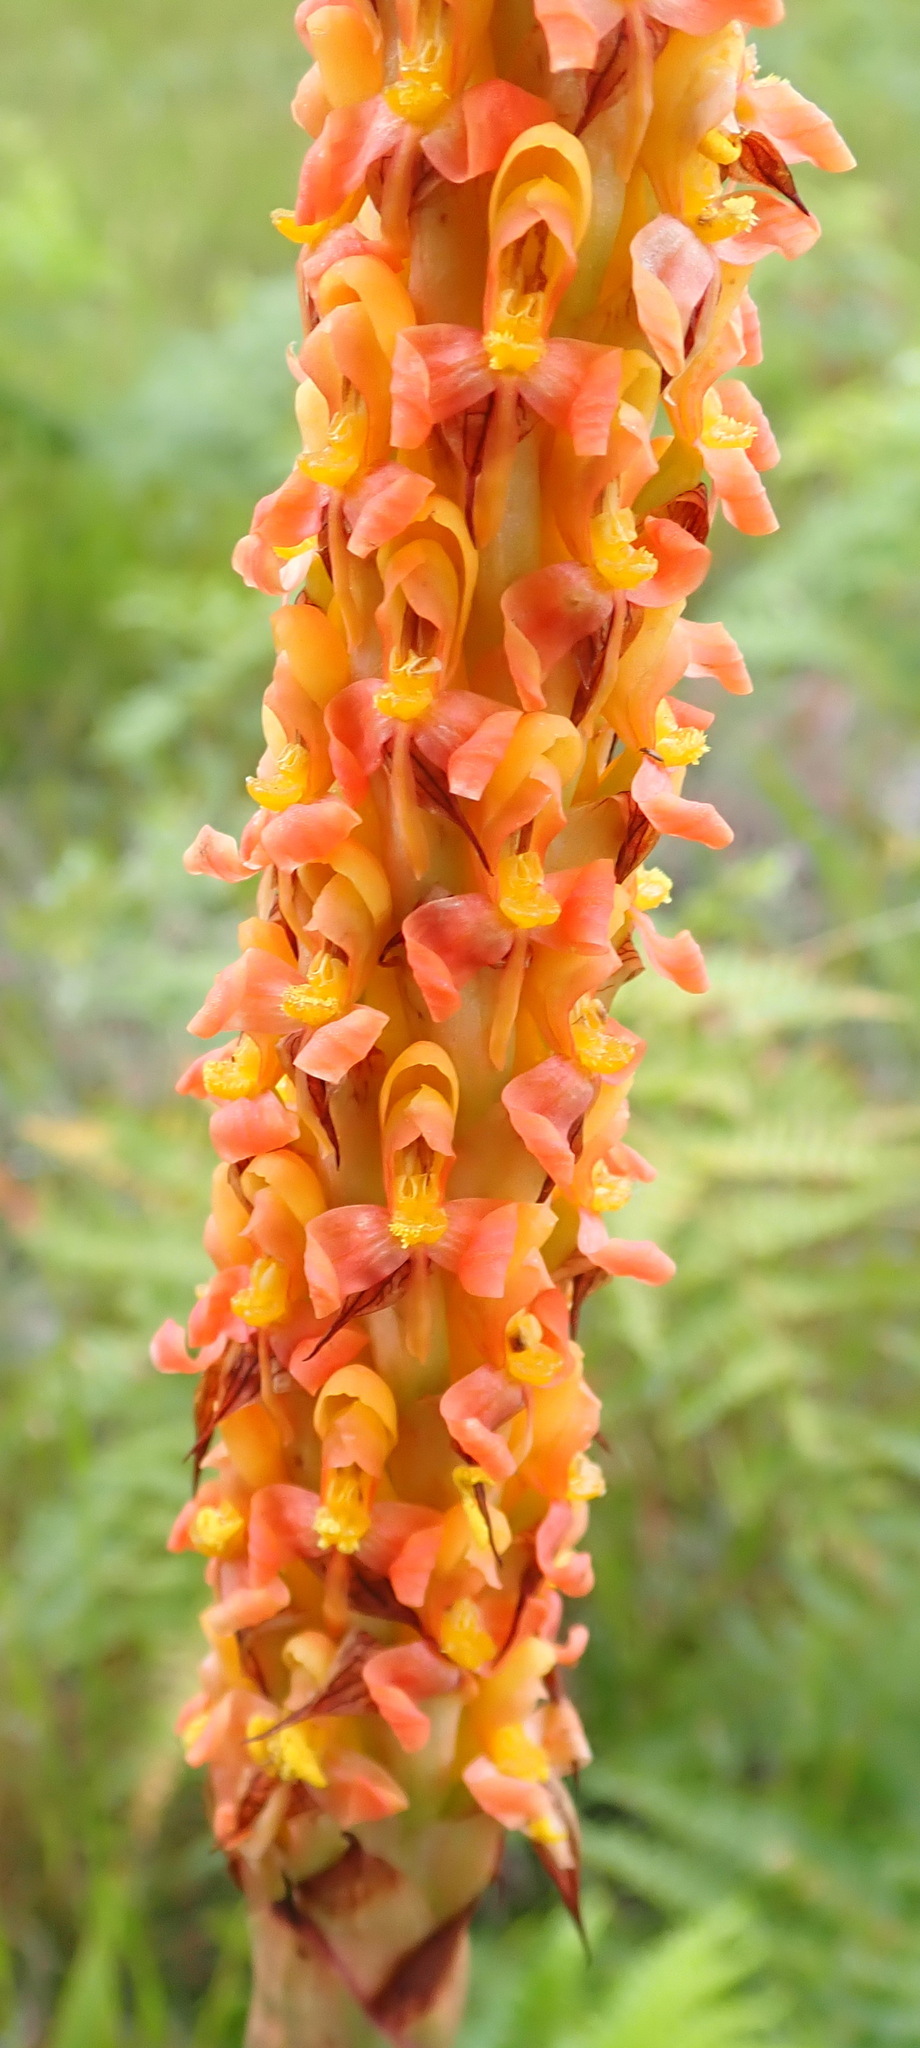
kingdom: Plantae
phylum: Tracheophyta
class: Liliopsida
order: Asparagales
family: Orchidaceae
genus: Disa
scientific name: Disa chrysostachya
